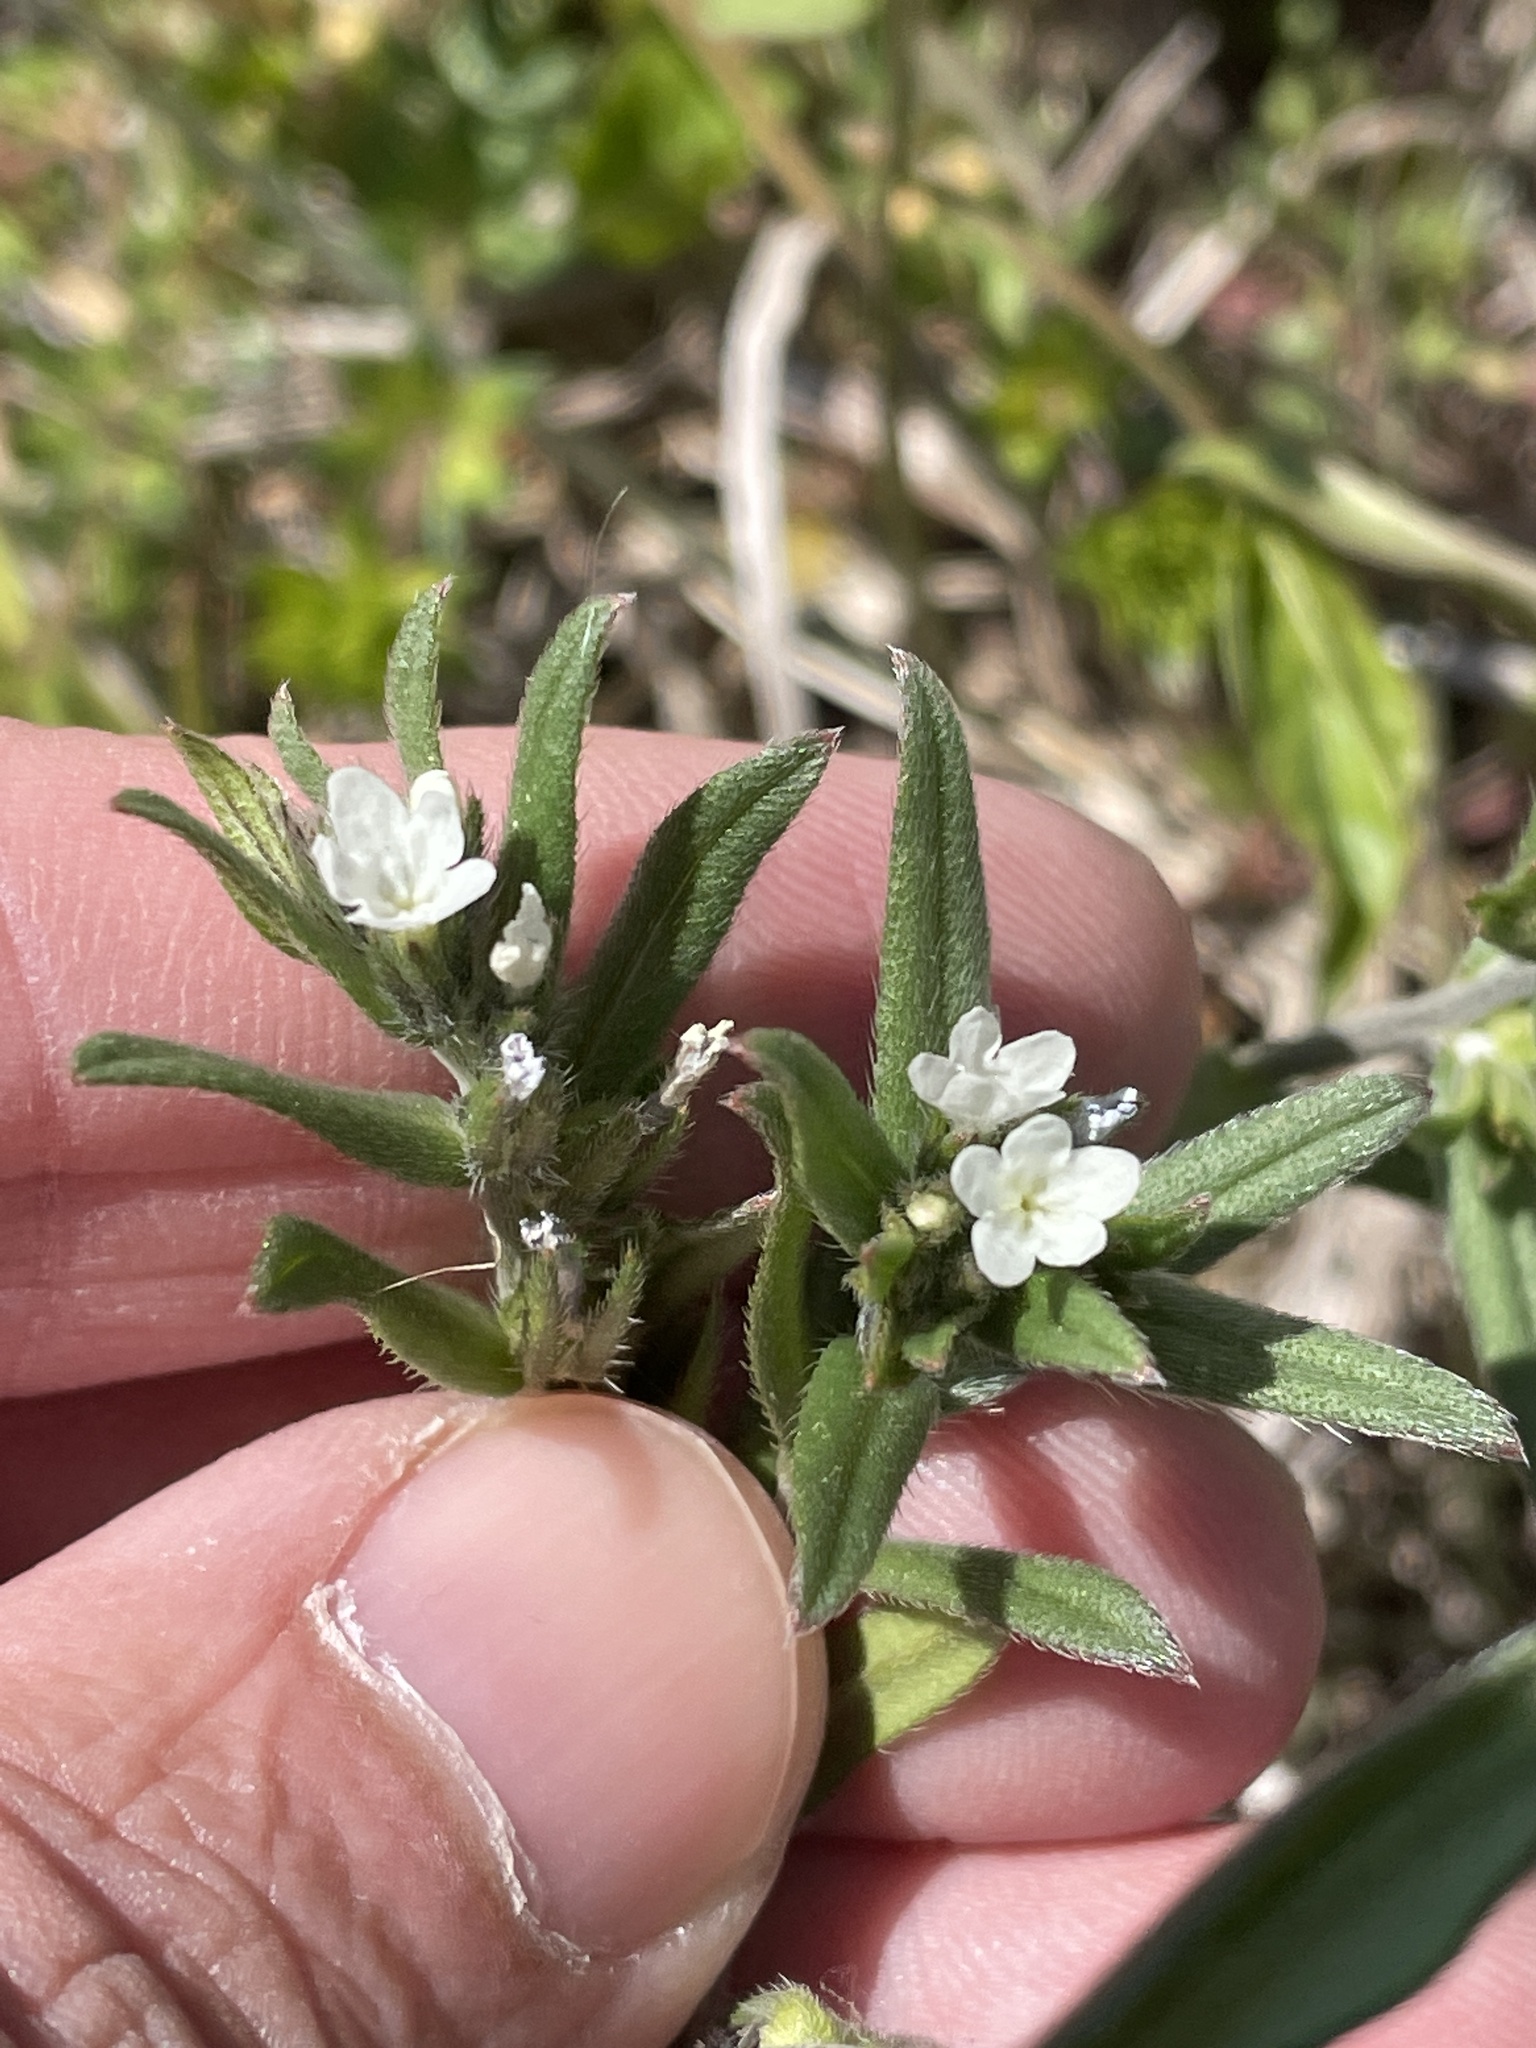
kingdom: Plantae
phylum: Tracheophyta
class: Magnoliopsida
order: Boraginales
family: Boraginaceae
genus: Buglossoides
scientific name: Buglossoides arvensis
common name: Corn gromwell
